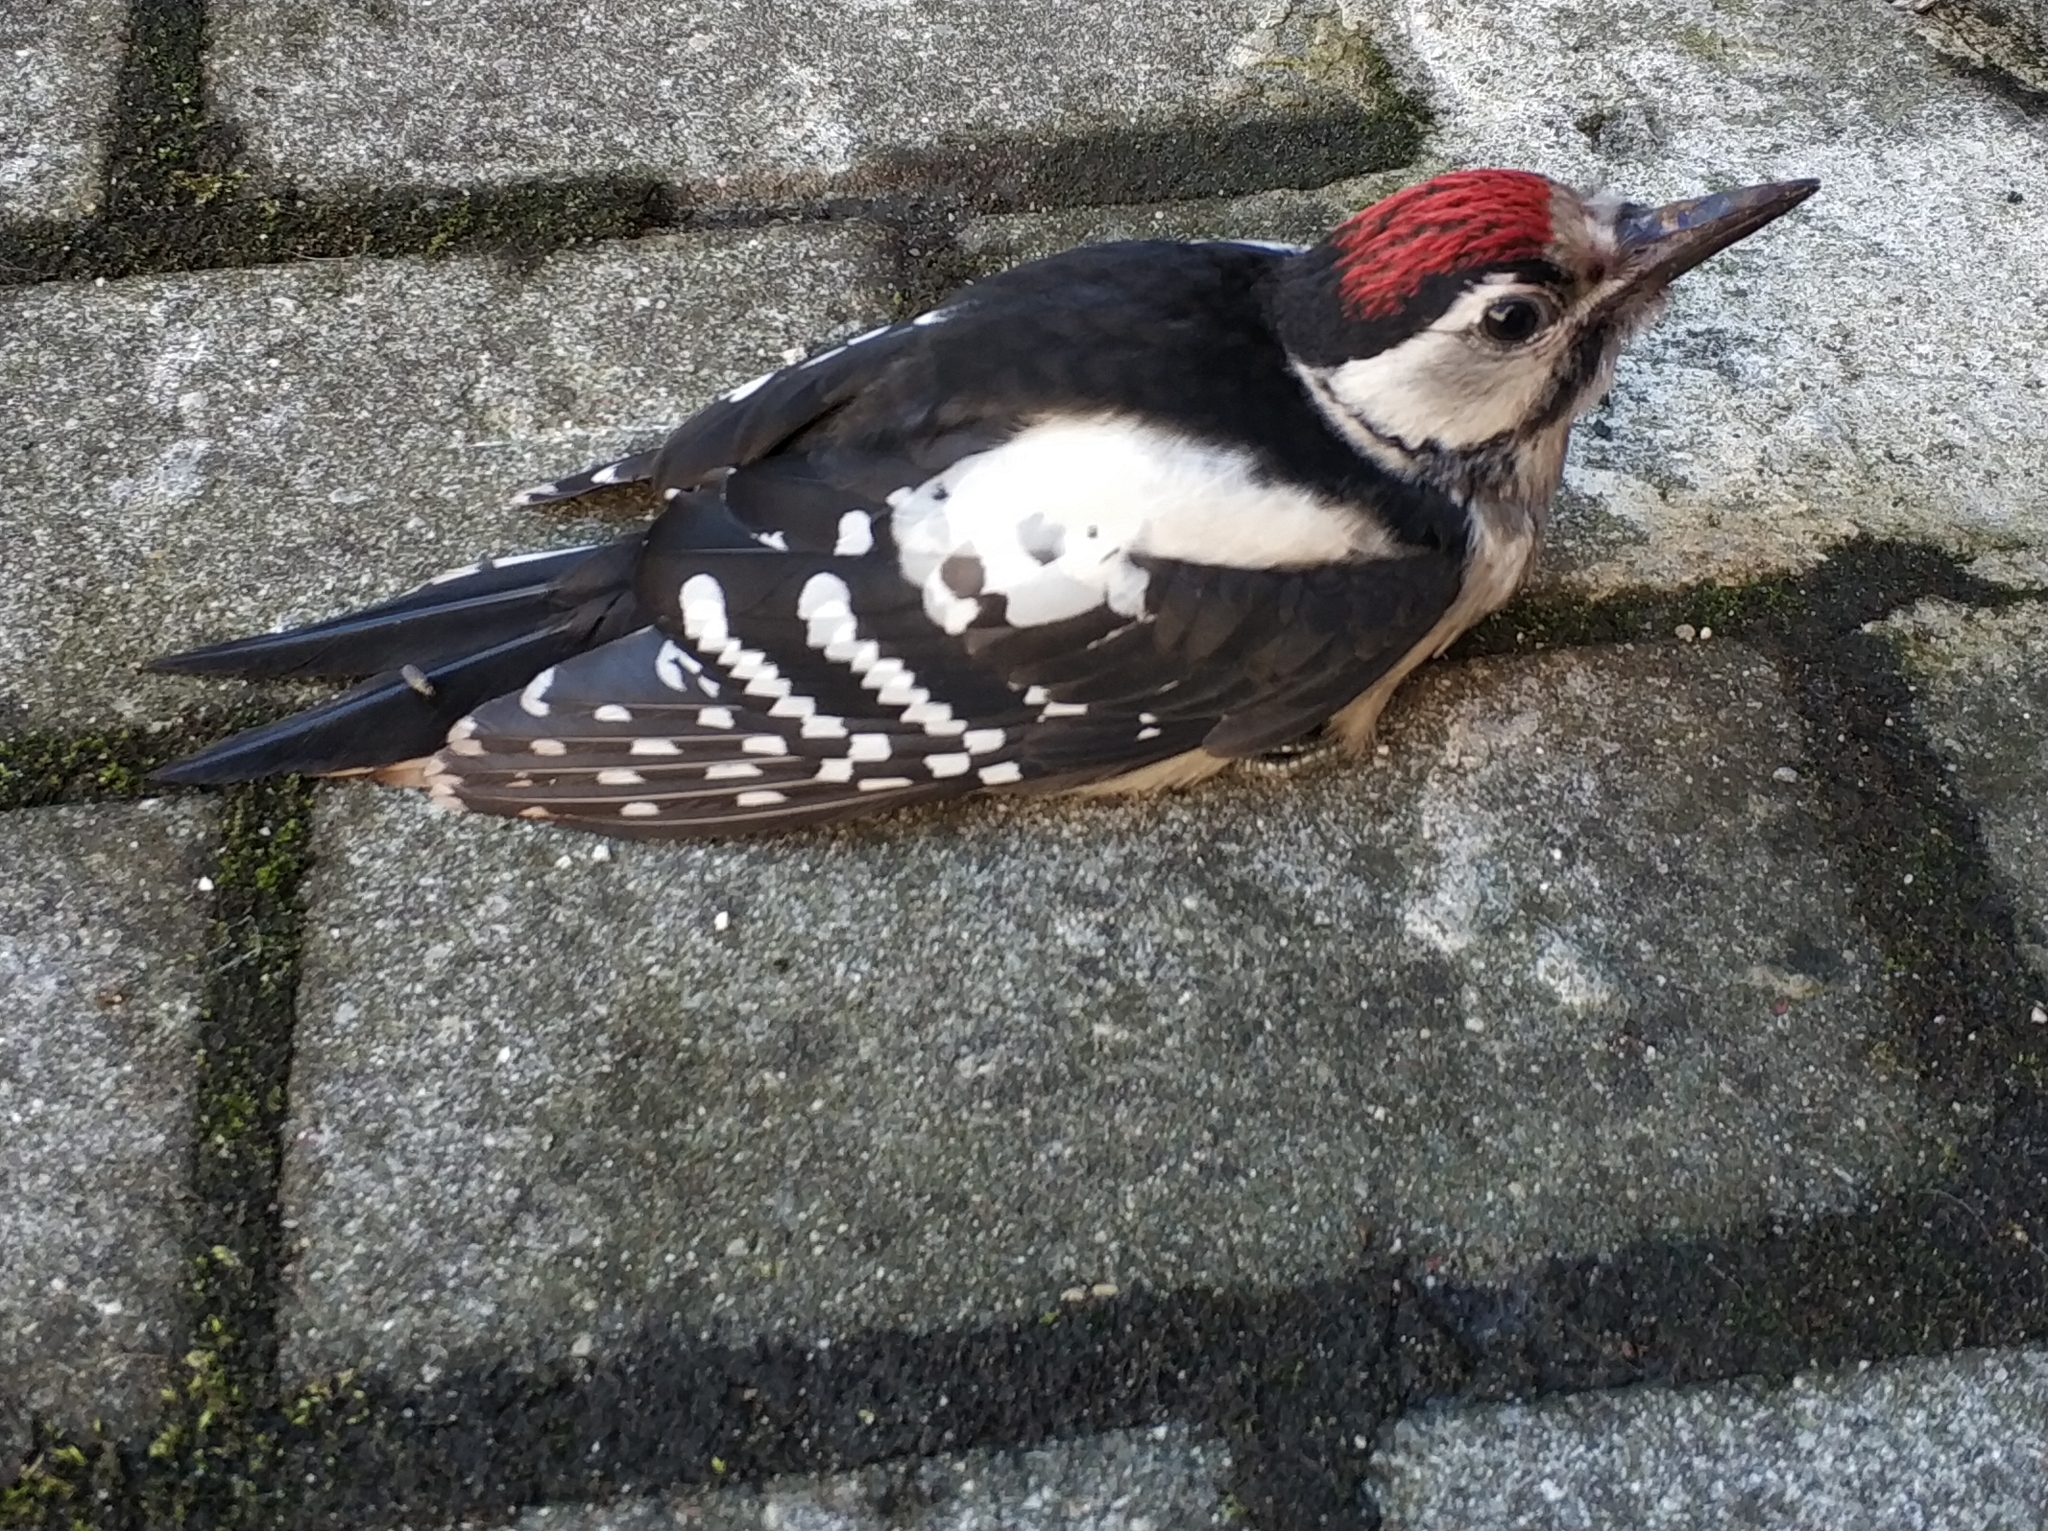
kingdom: Animalia
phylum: Chordata
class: Aves
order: Piciformes
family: Picidae
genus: Dendrocopos
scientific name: Dendrocopos major
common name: Great spotted woodpecker
